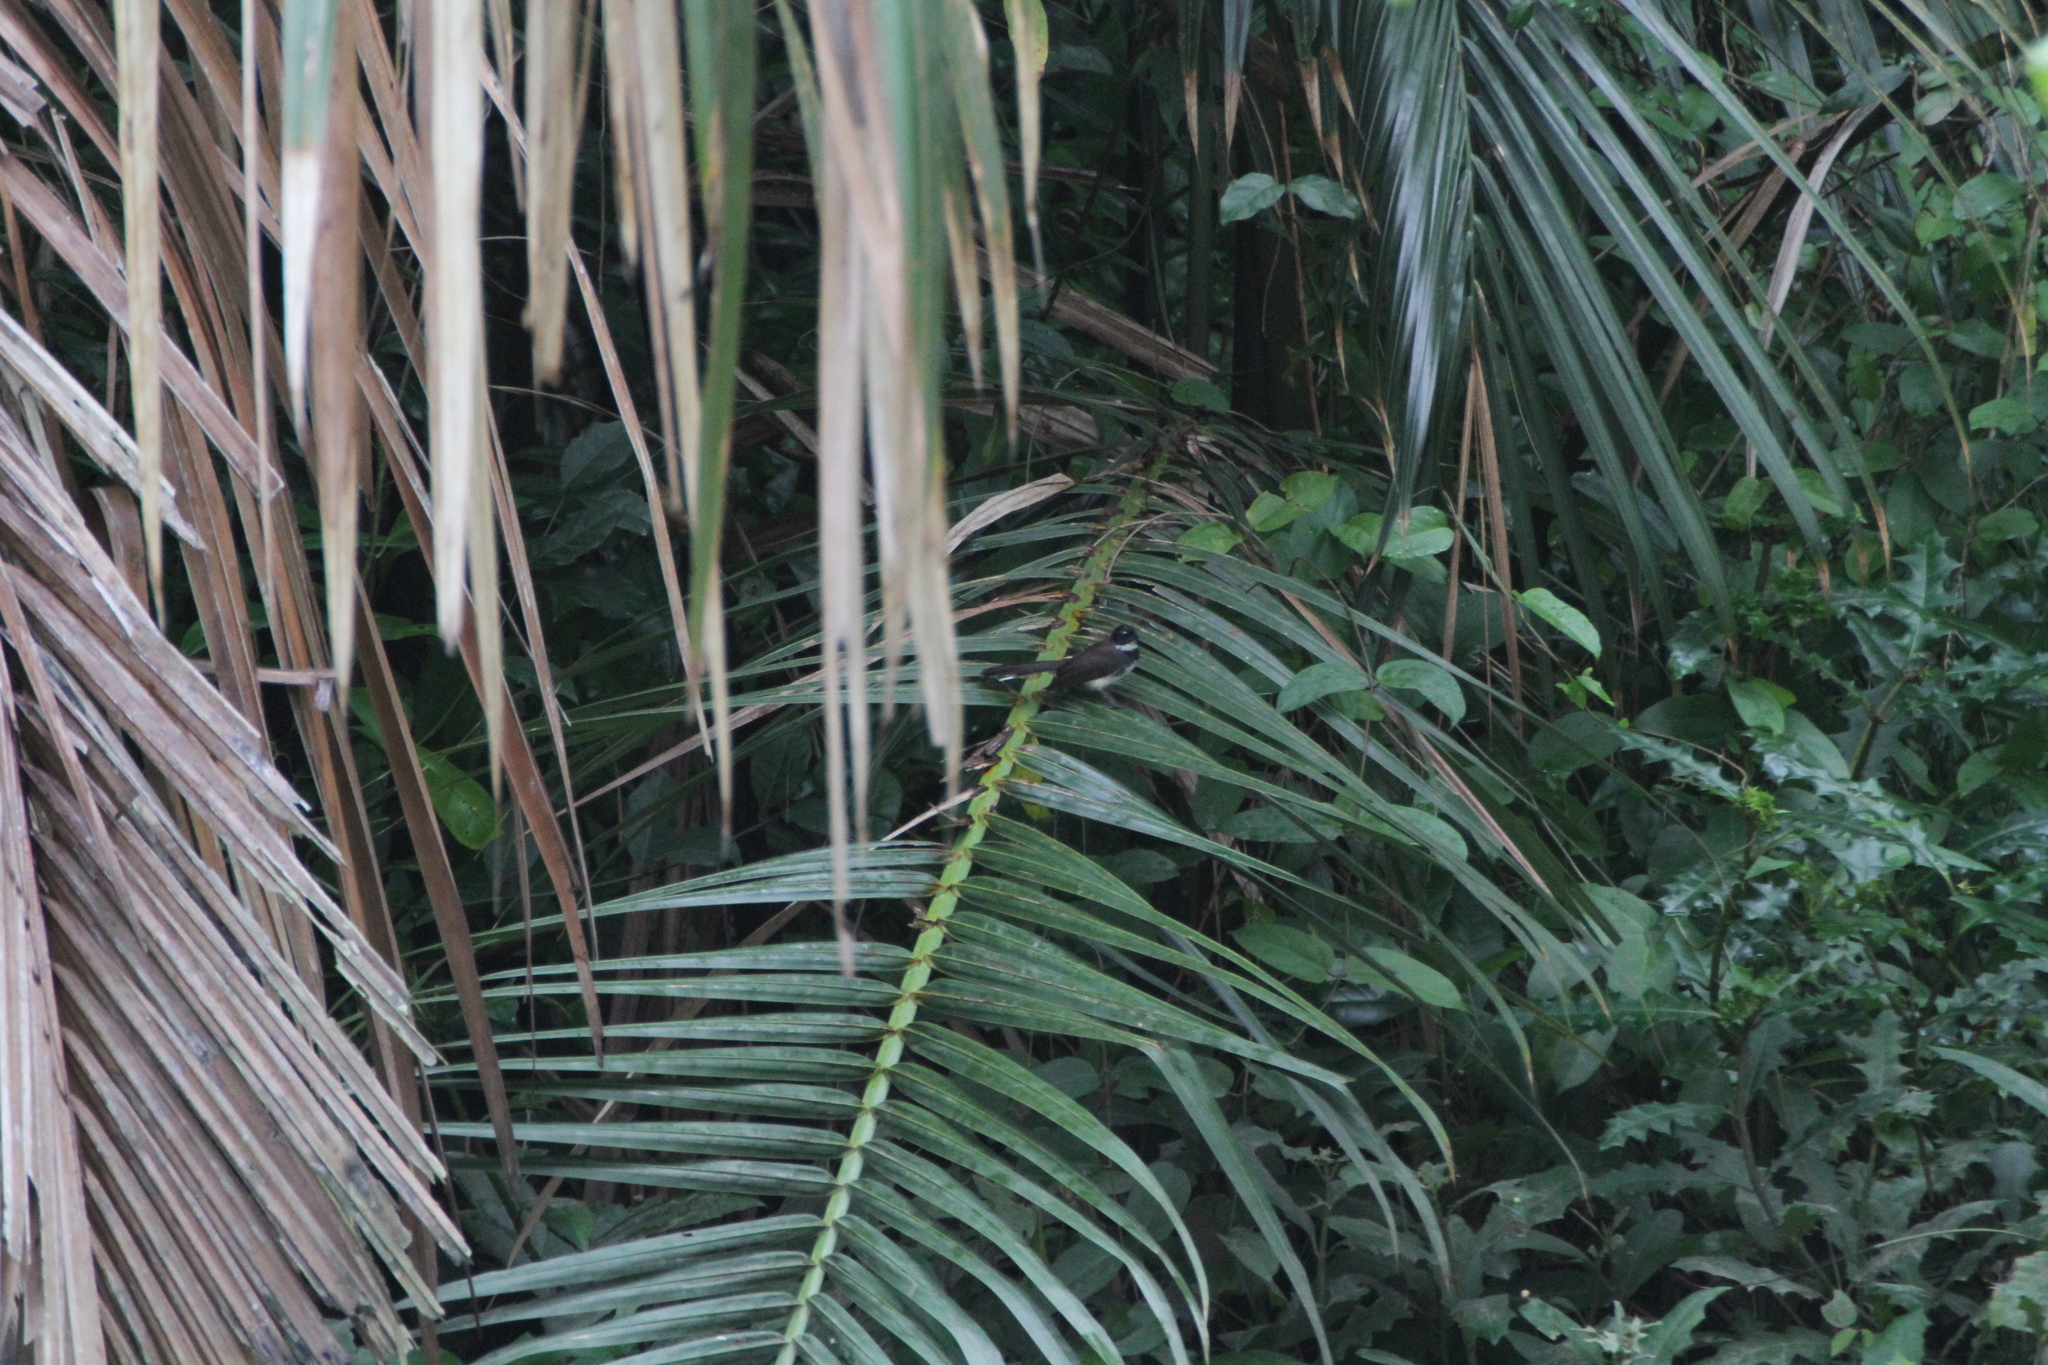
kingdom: Animalia
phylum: Chordata
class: Aves
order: Passeriformes
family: Rhipiduridae
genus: Rhipidura
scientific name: Rhipidura javanica
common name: Pied fantail
